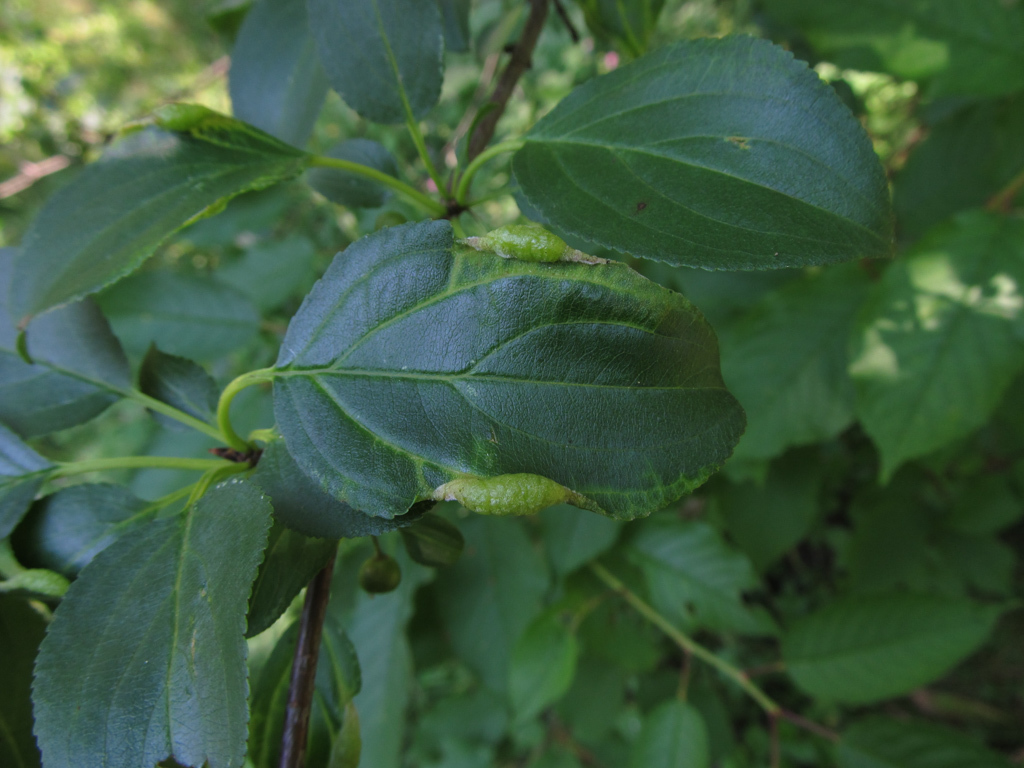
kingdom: Plantae
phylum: Tracheophyta
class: Magnoliopsida
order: Rosales
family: Rhamnaceae
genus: Rhamnus
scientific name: Rhamnus cathartica
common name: Common buckthorn
